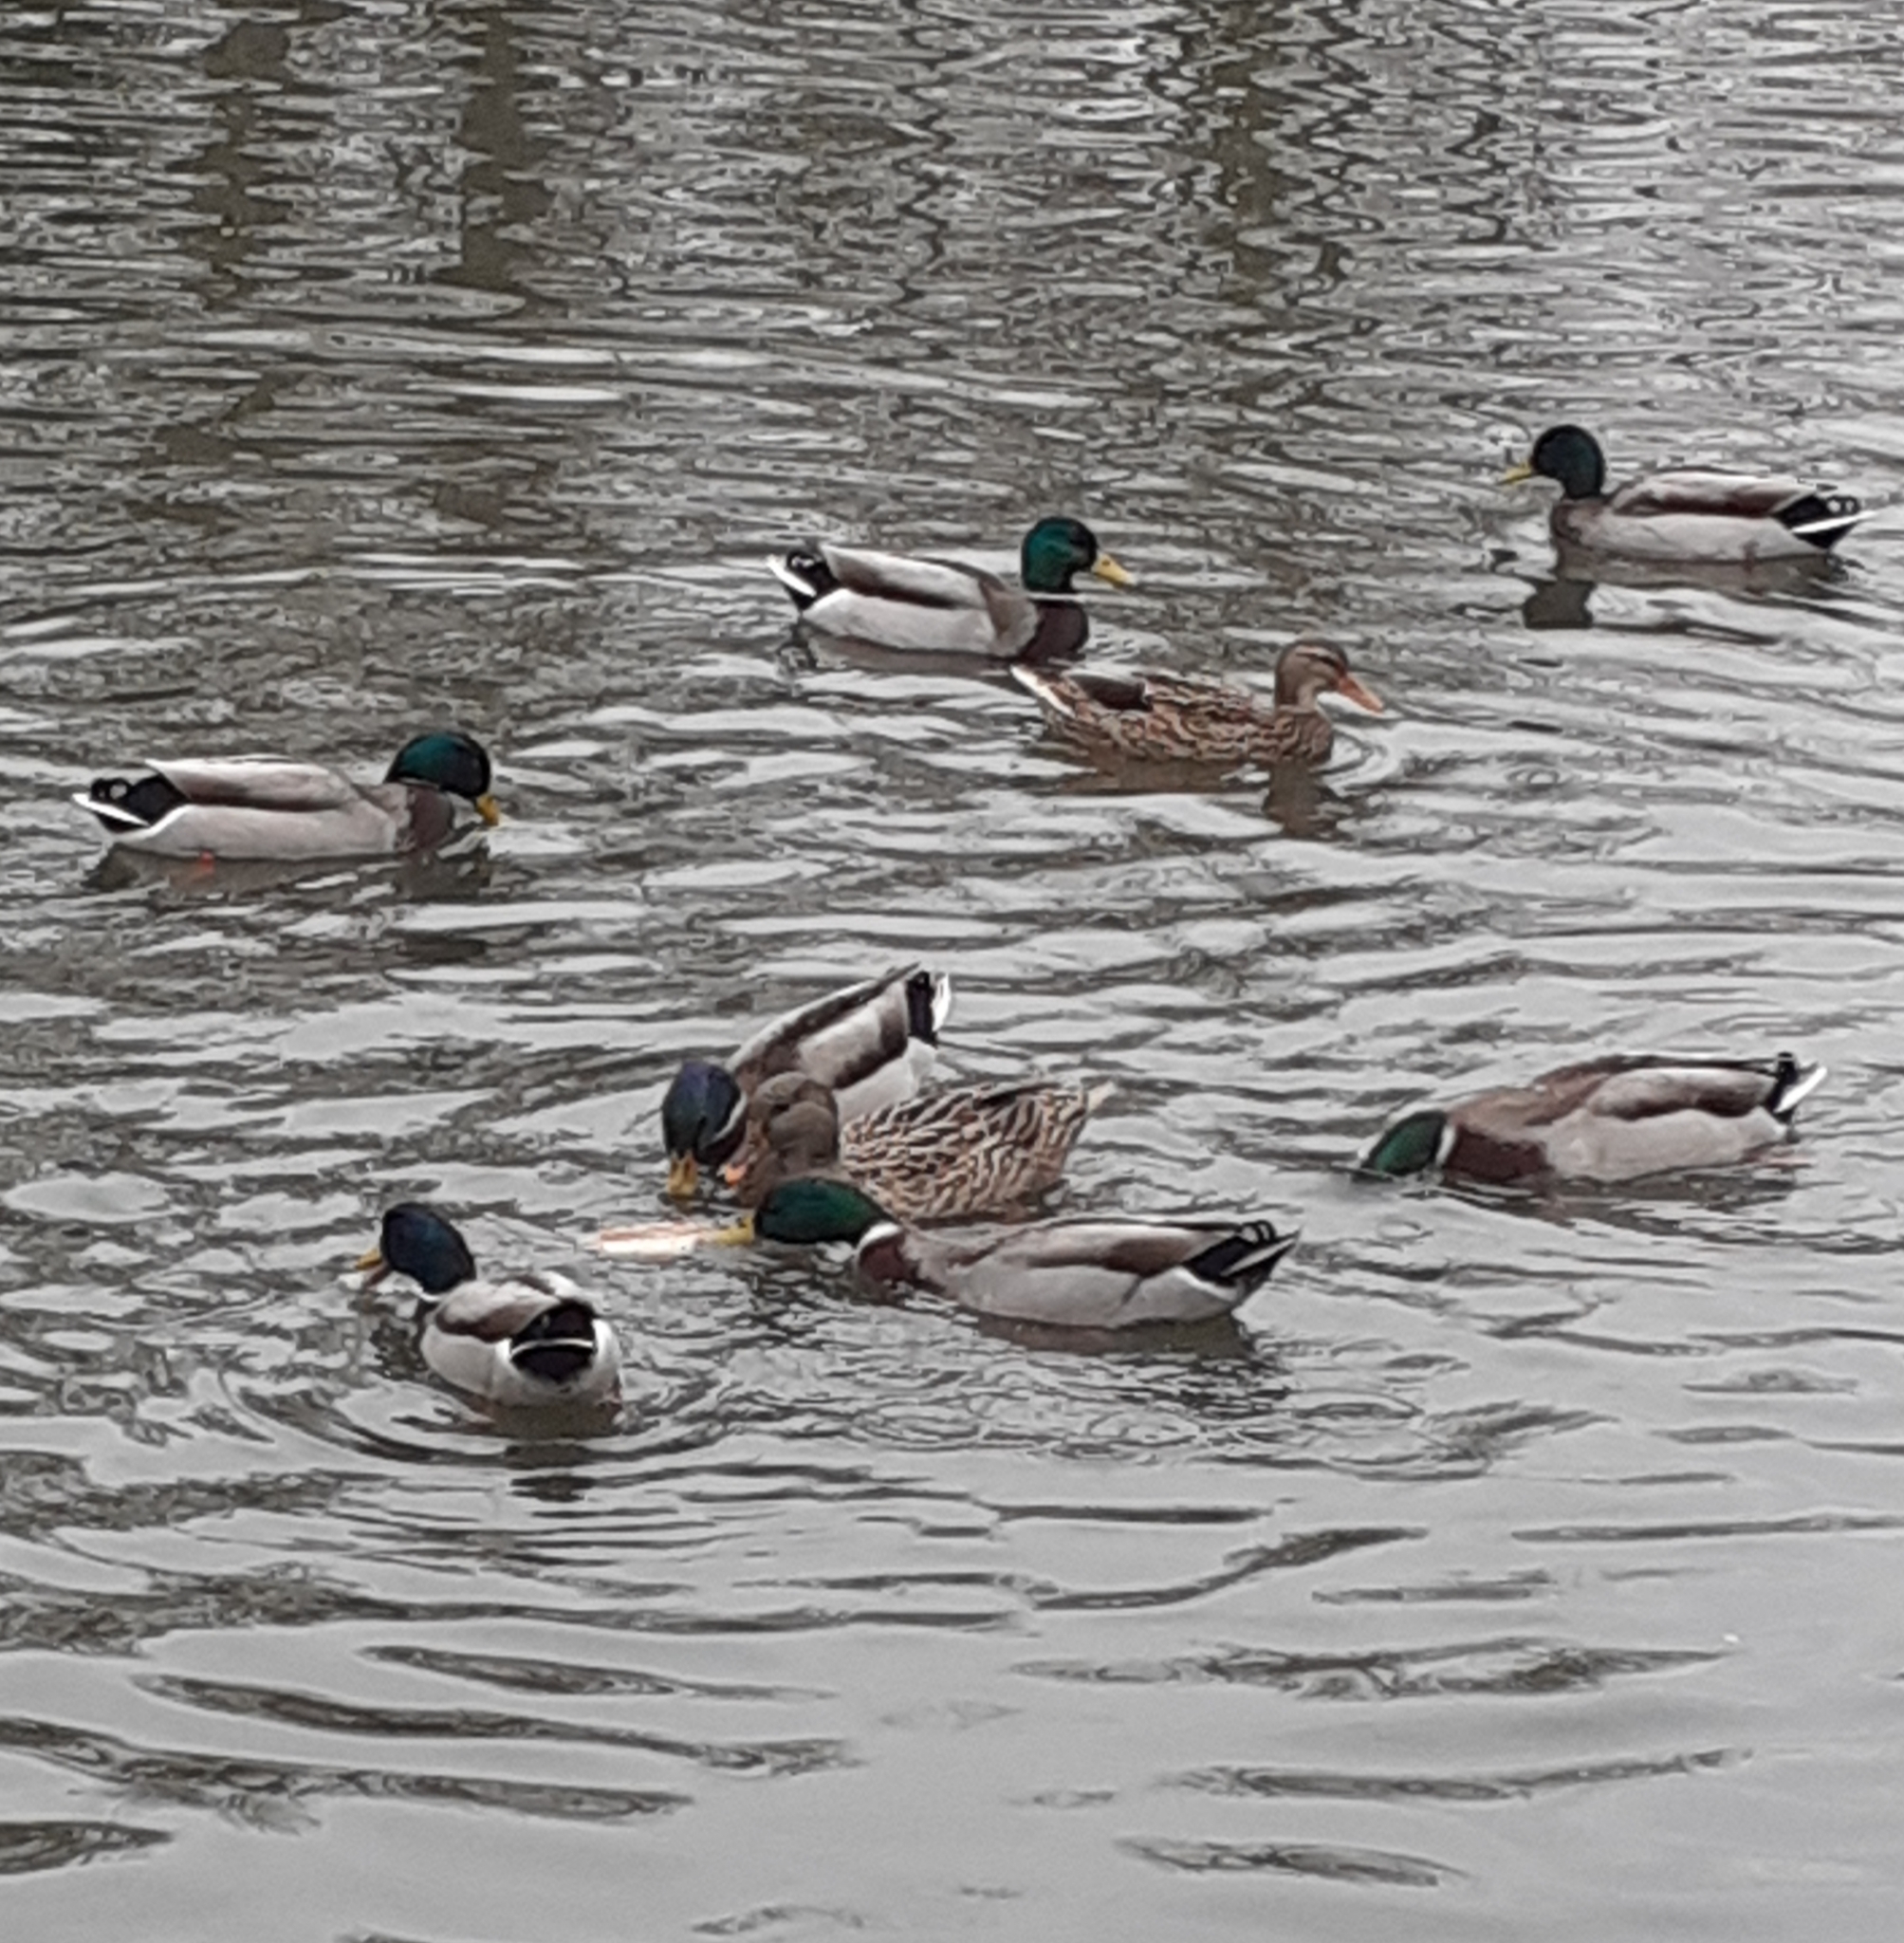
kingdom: Animalia
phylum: Chordata
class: Aves
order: Anseriformes
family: Anatidae
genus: Anas
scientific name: Anas platyrhynchos
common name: Mallard
